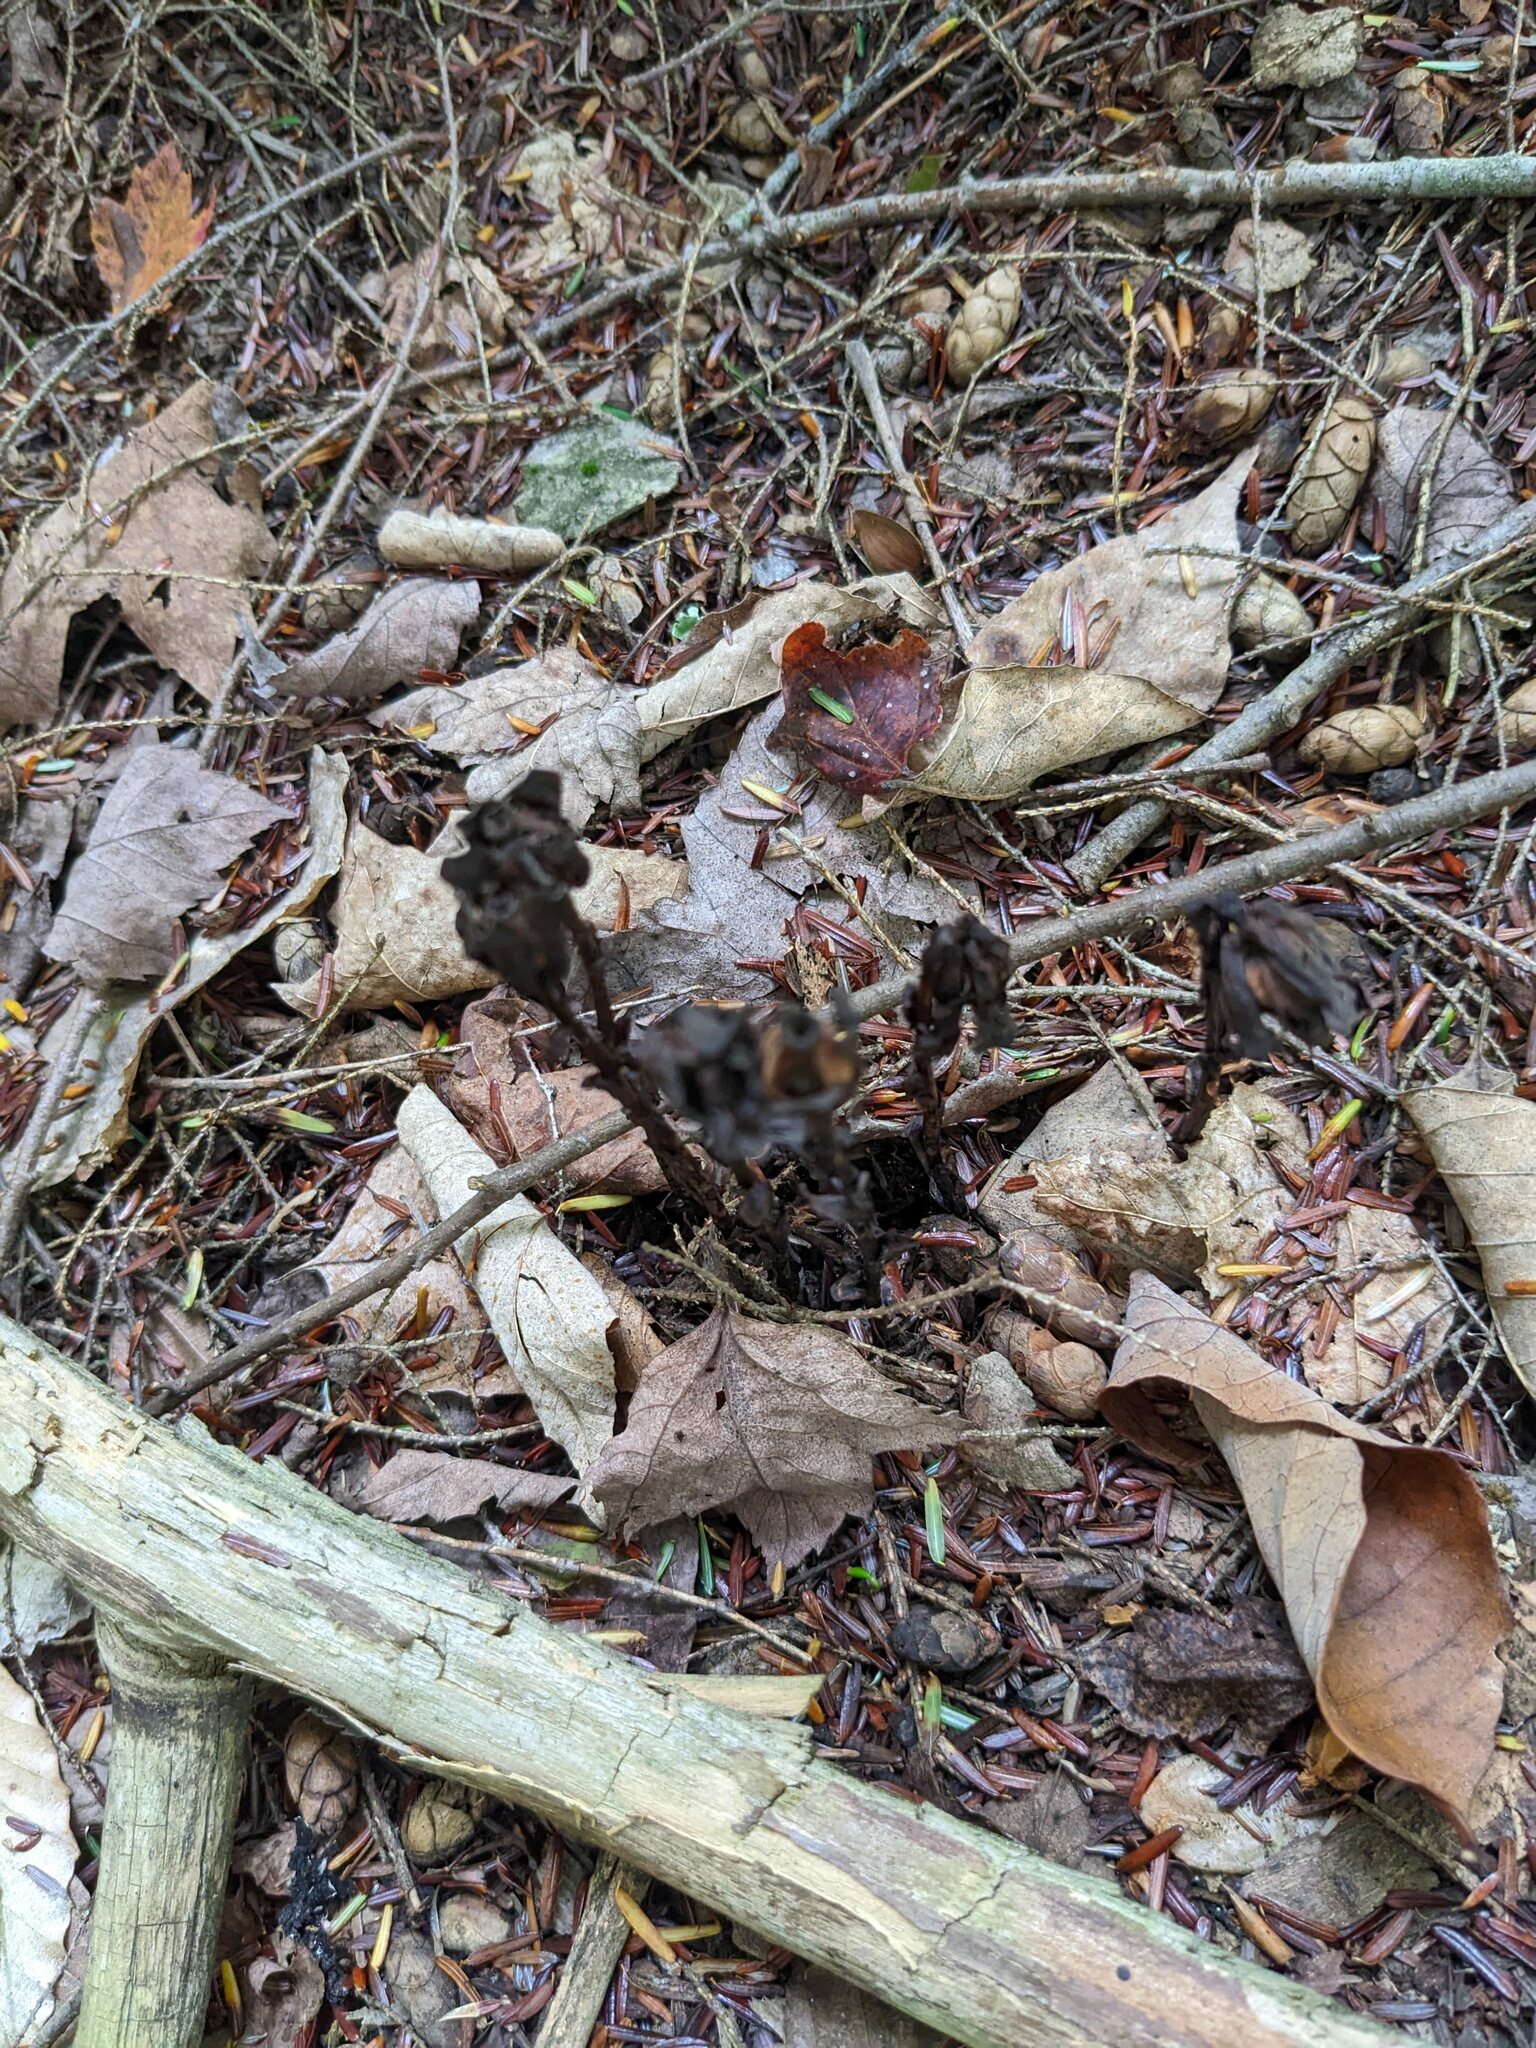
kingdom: Plantae
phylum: Tracheophyta
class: Magnoliopsida
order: Ericales
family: Ericaceae
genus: Monotropa
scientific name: Monotropa uniflora
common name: Convulsion root
